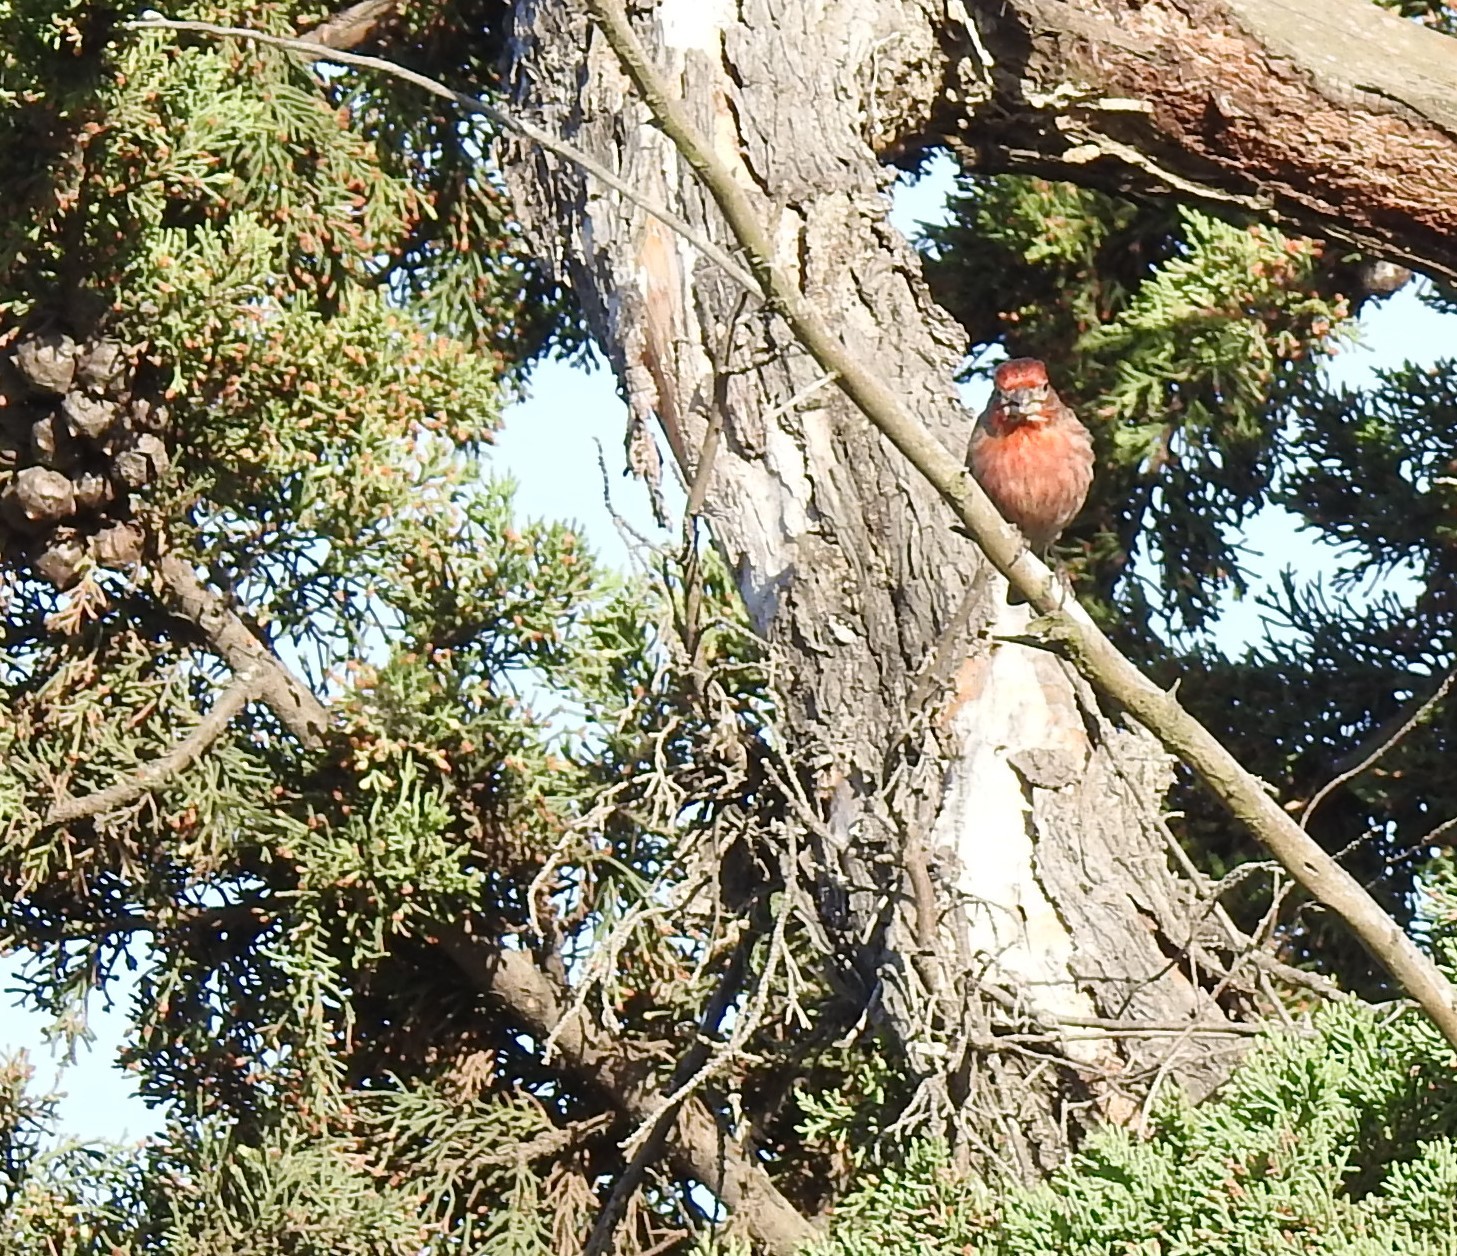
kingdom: Animalia
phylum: Chordata
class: Aves
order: Passeriformes
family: Fringillidae
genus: Haemorhous
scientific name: Haemorhous mexicanus
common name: House finch
